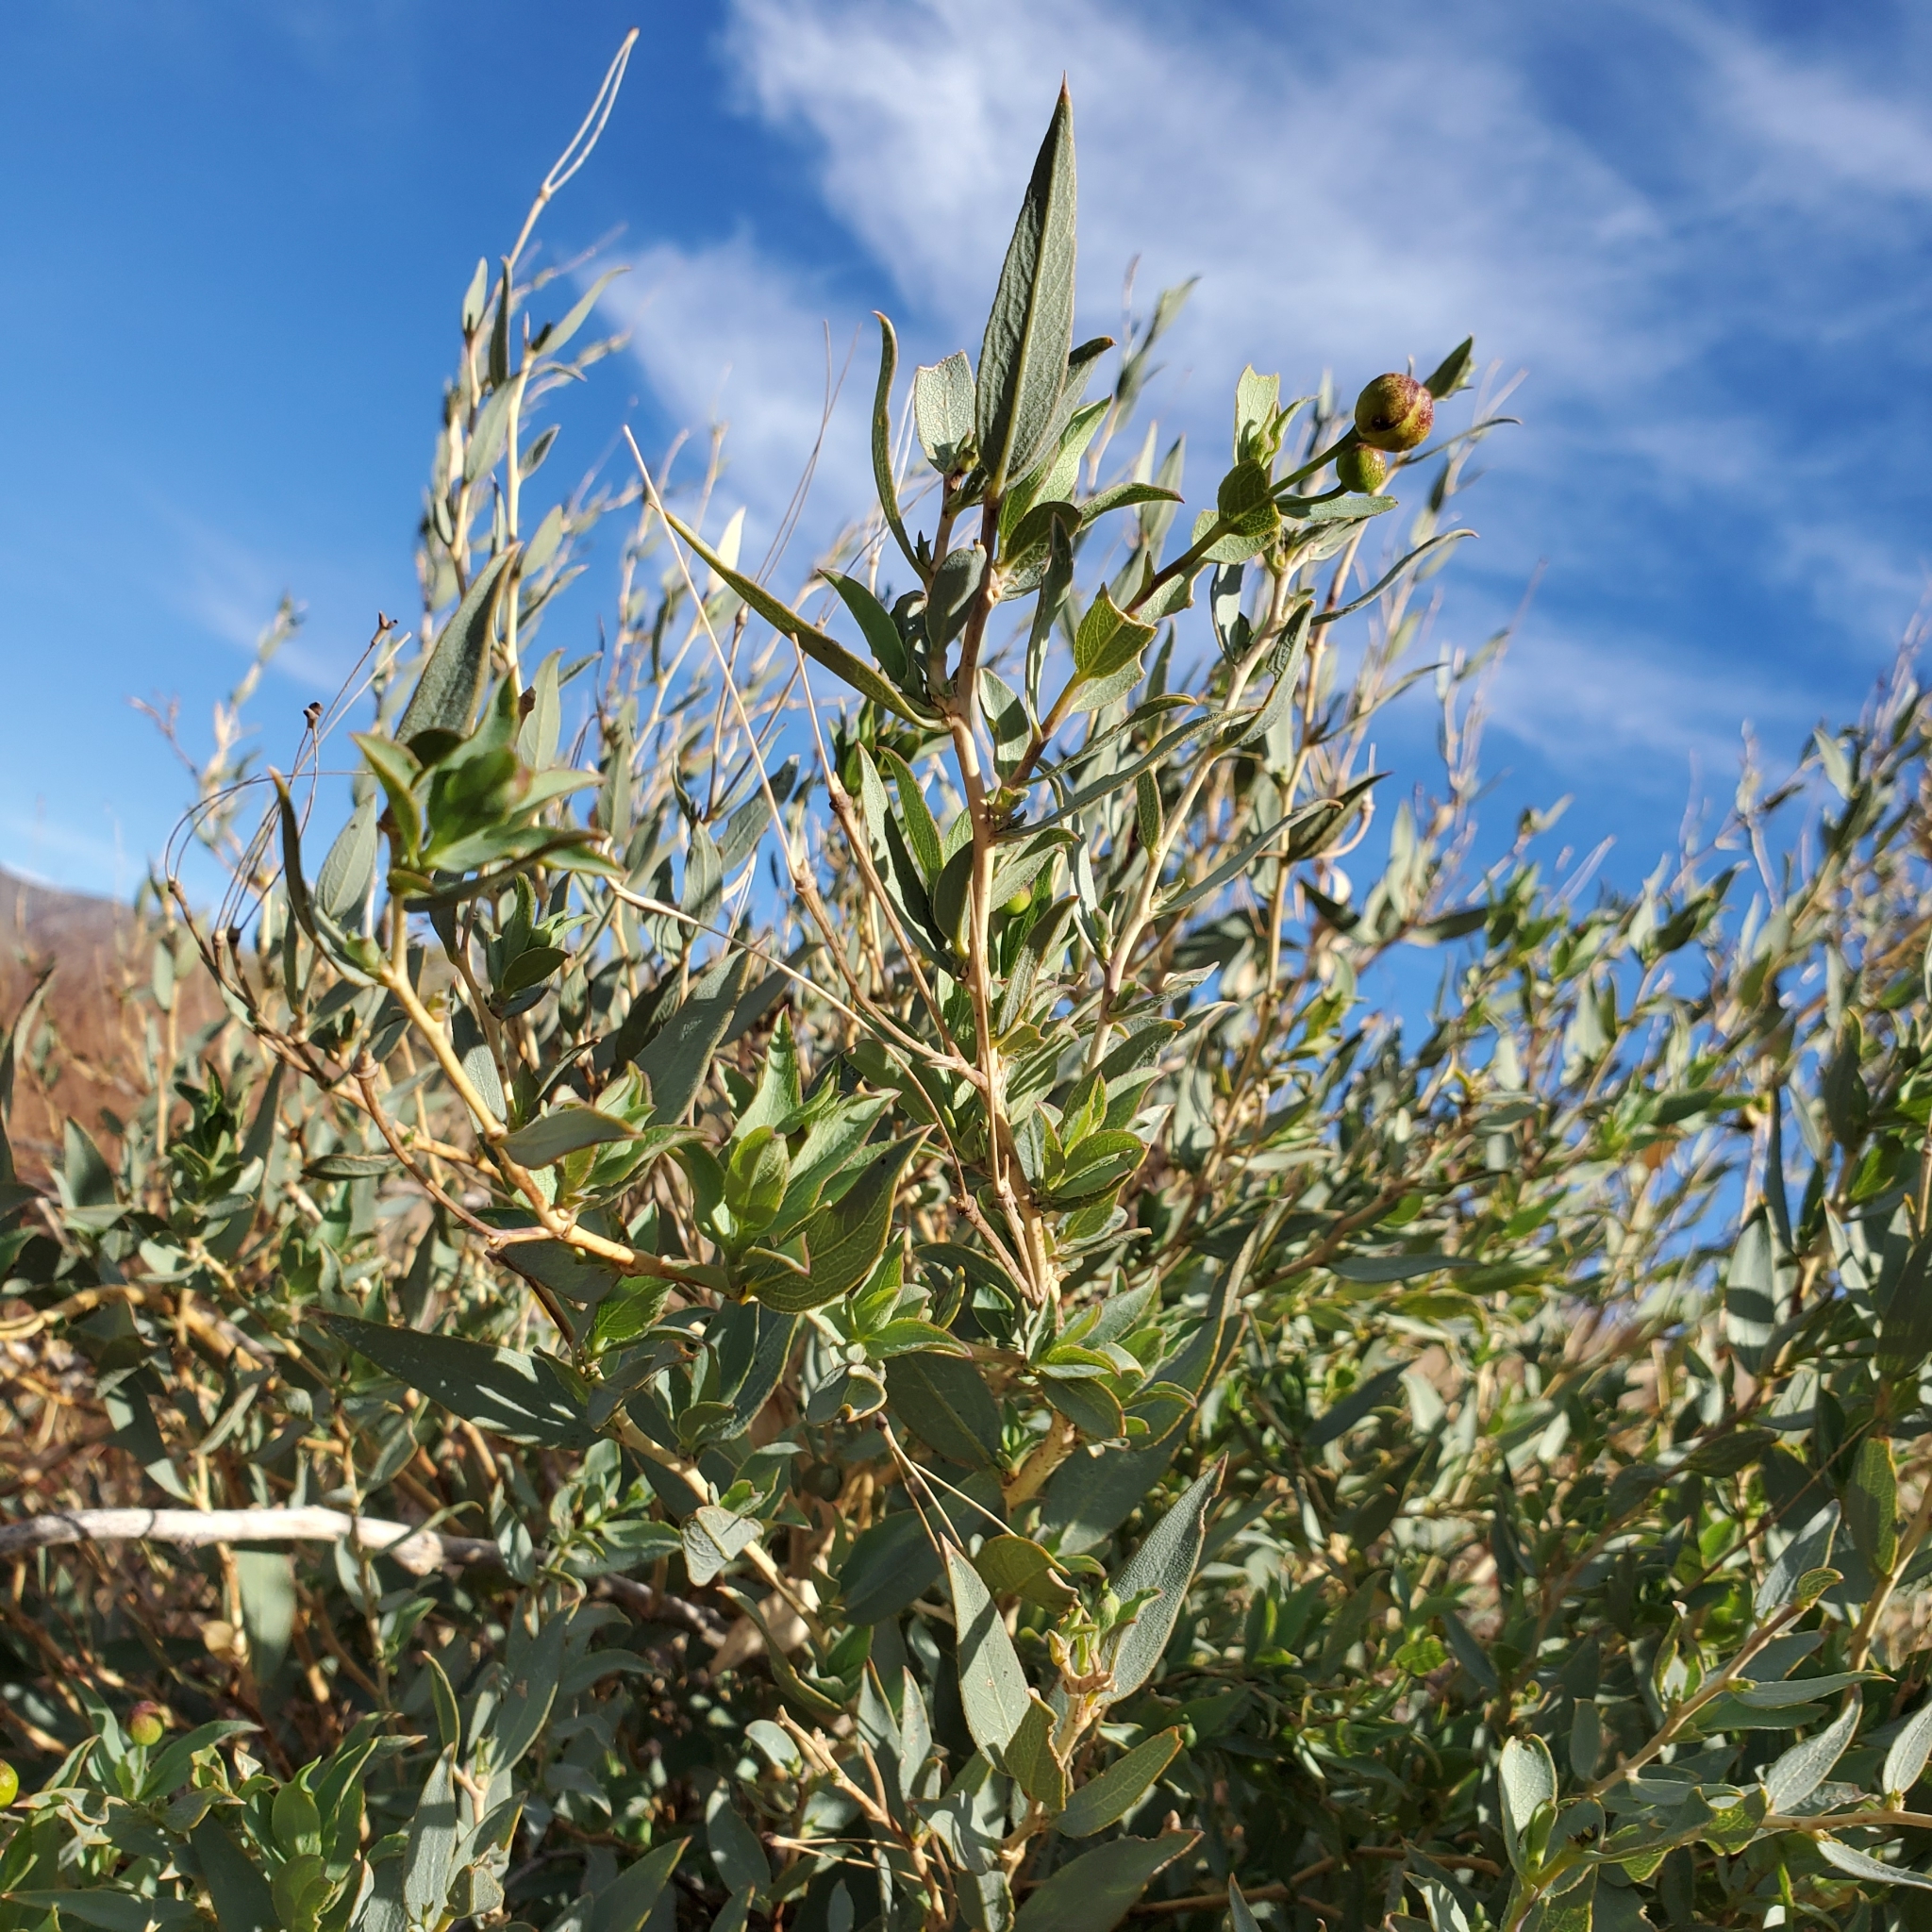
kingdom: Plantae
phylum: Tracheophyta
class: Magnoliopsida
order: Ranunculales
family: Papaveraceae
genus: Dendromecon
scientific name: Dendromecon rigida
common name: Tree poppy
